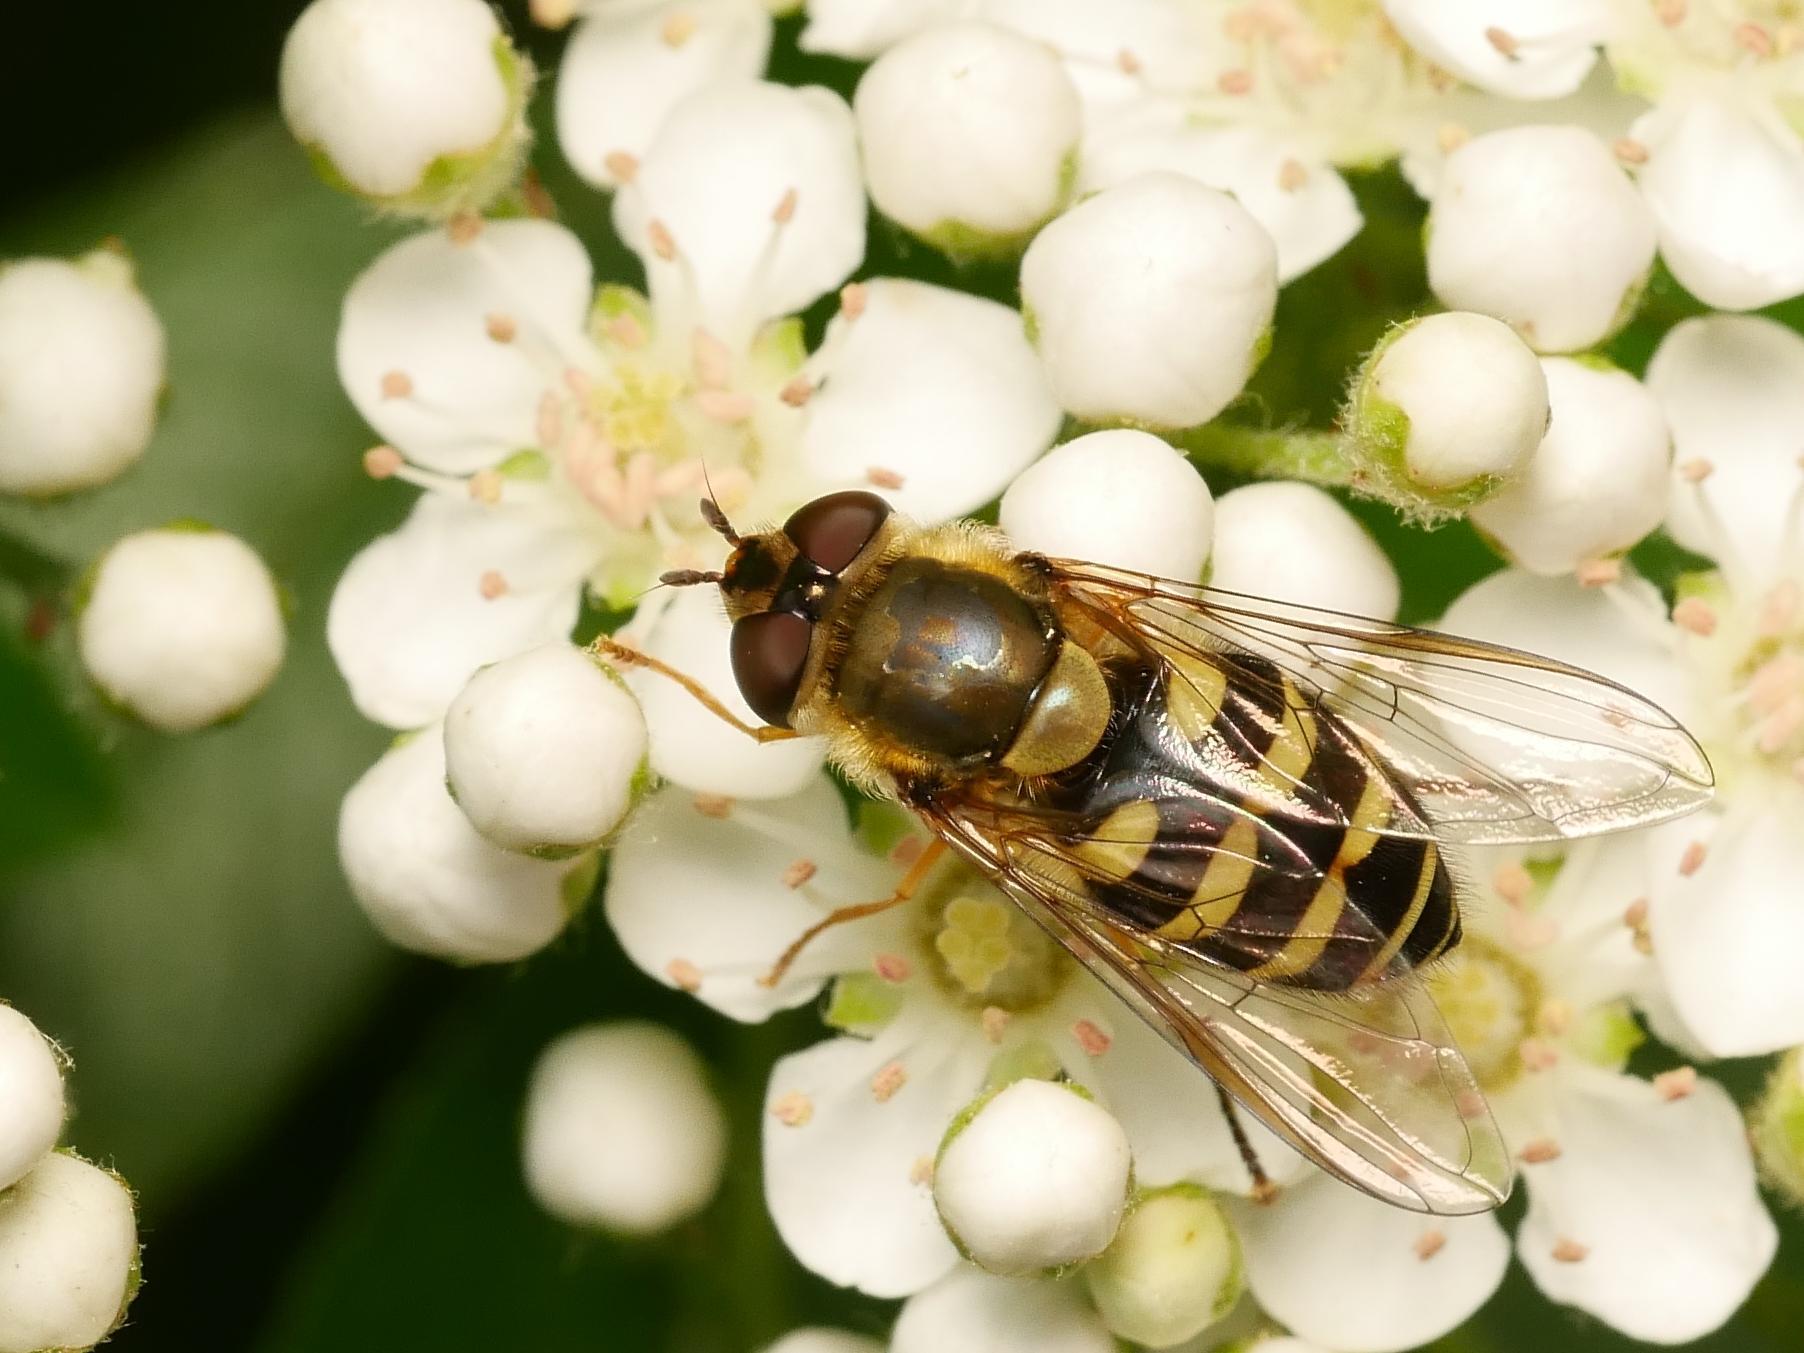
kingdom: Animalia
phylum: Arthropoda
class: Insecta
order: Diptera
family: Syrphidae
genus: Syrphus
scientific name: Syrphus vitripennis
